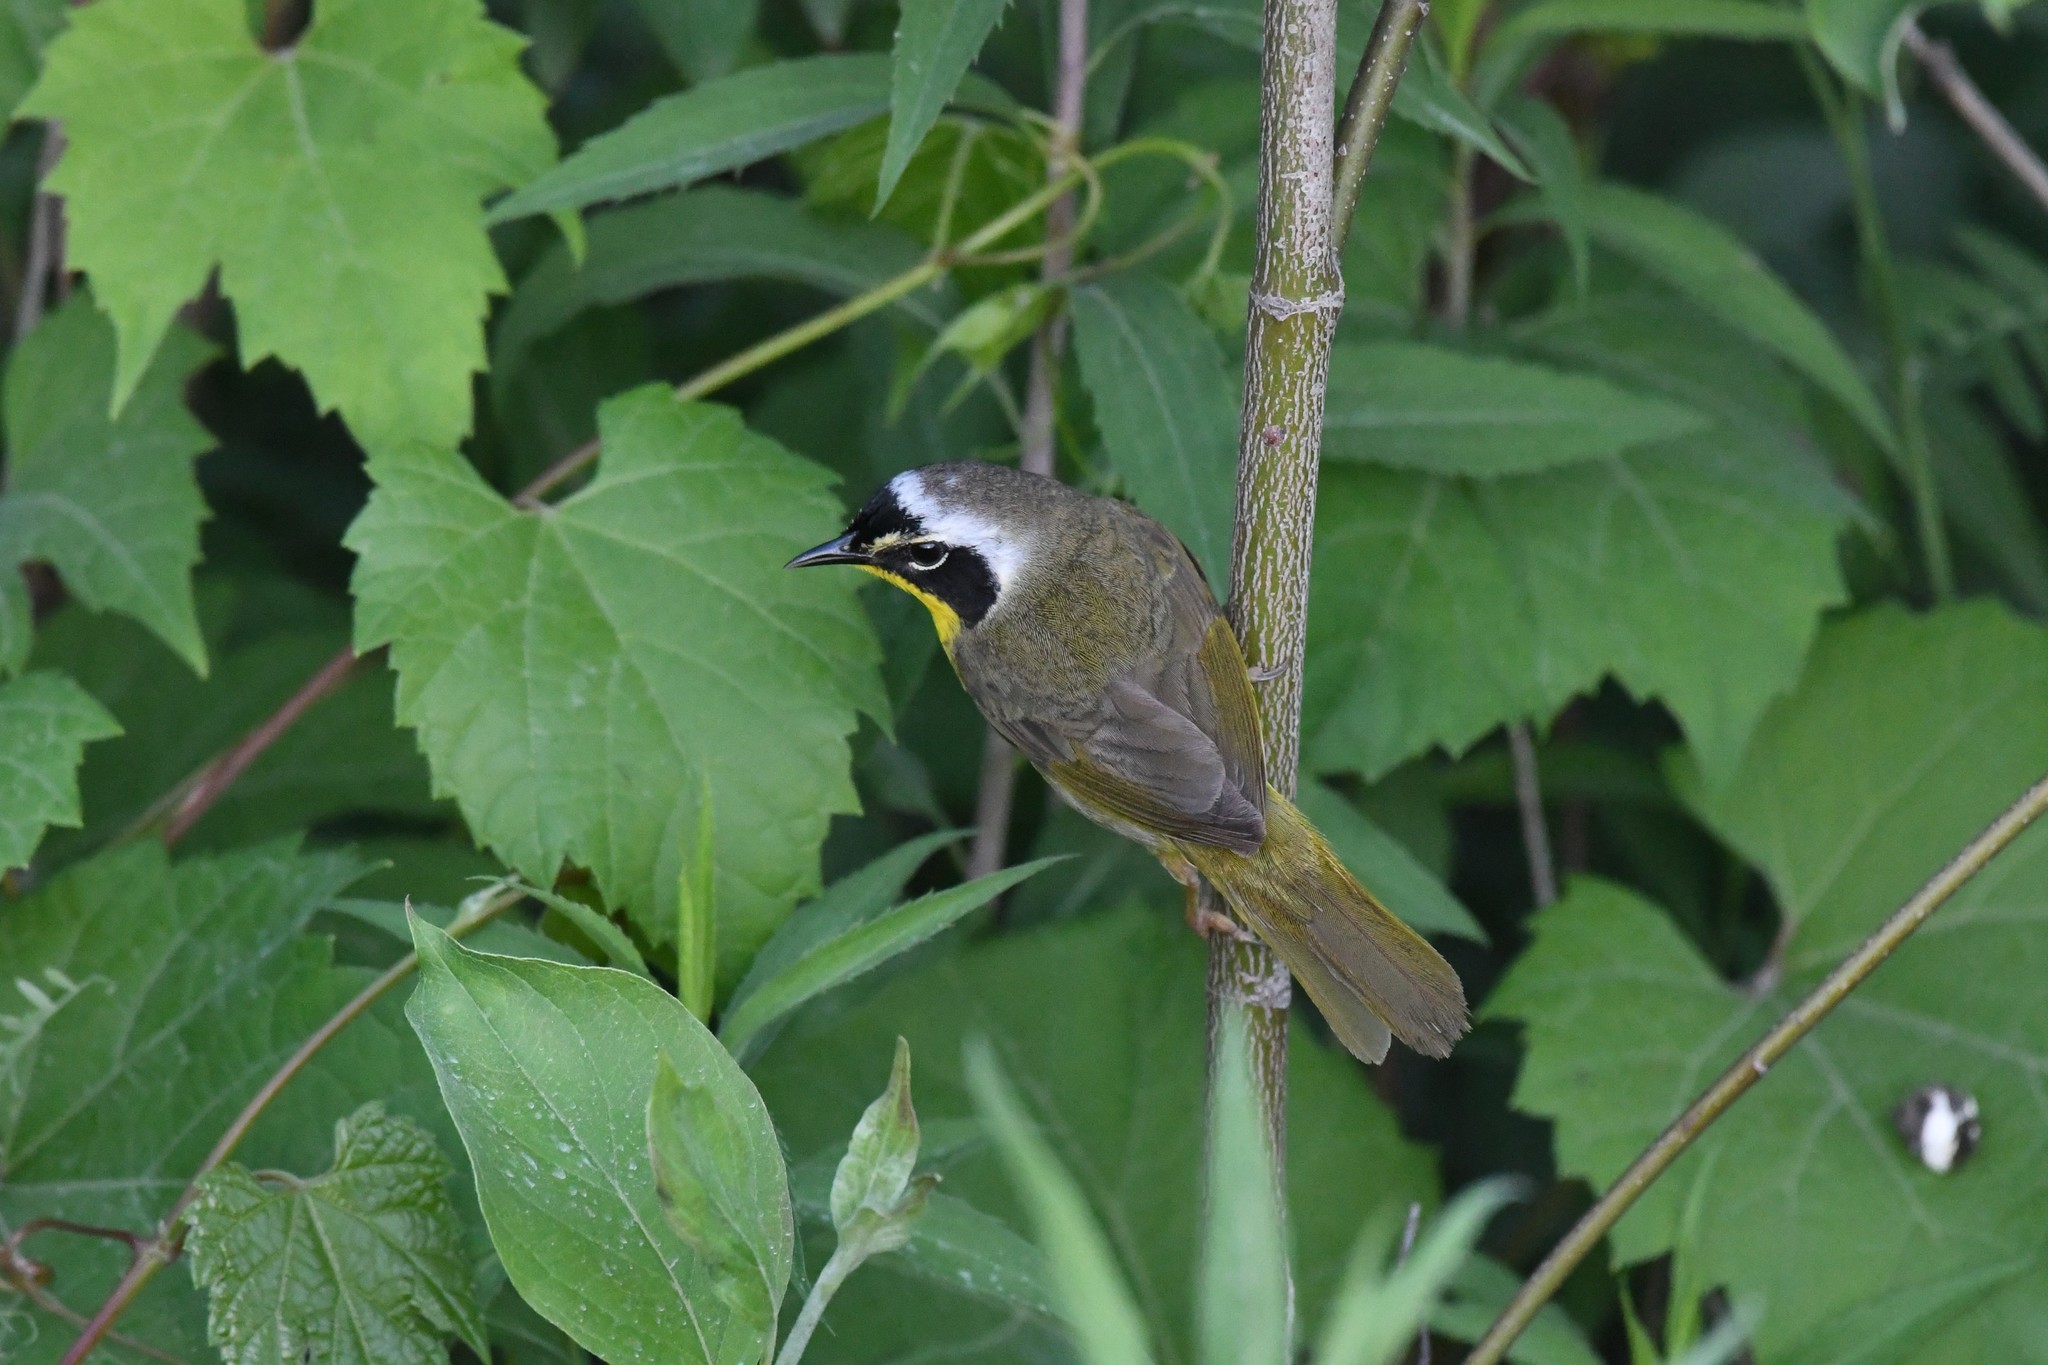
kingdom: Animalia
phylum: Chordata
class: Aves
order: Passeriformes
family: Parulidae
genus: Geothlypis
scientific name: Geothlypis trichas
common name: Common yellowthroat
